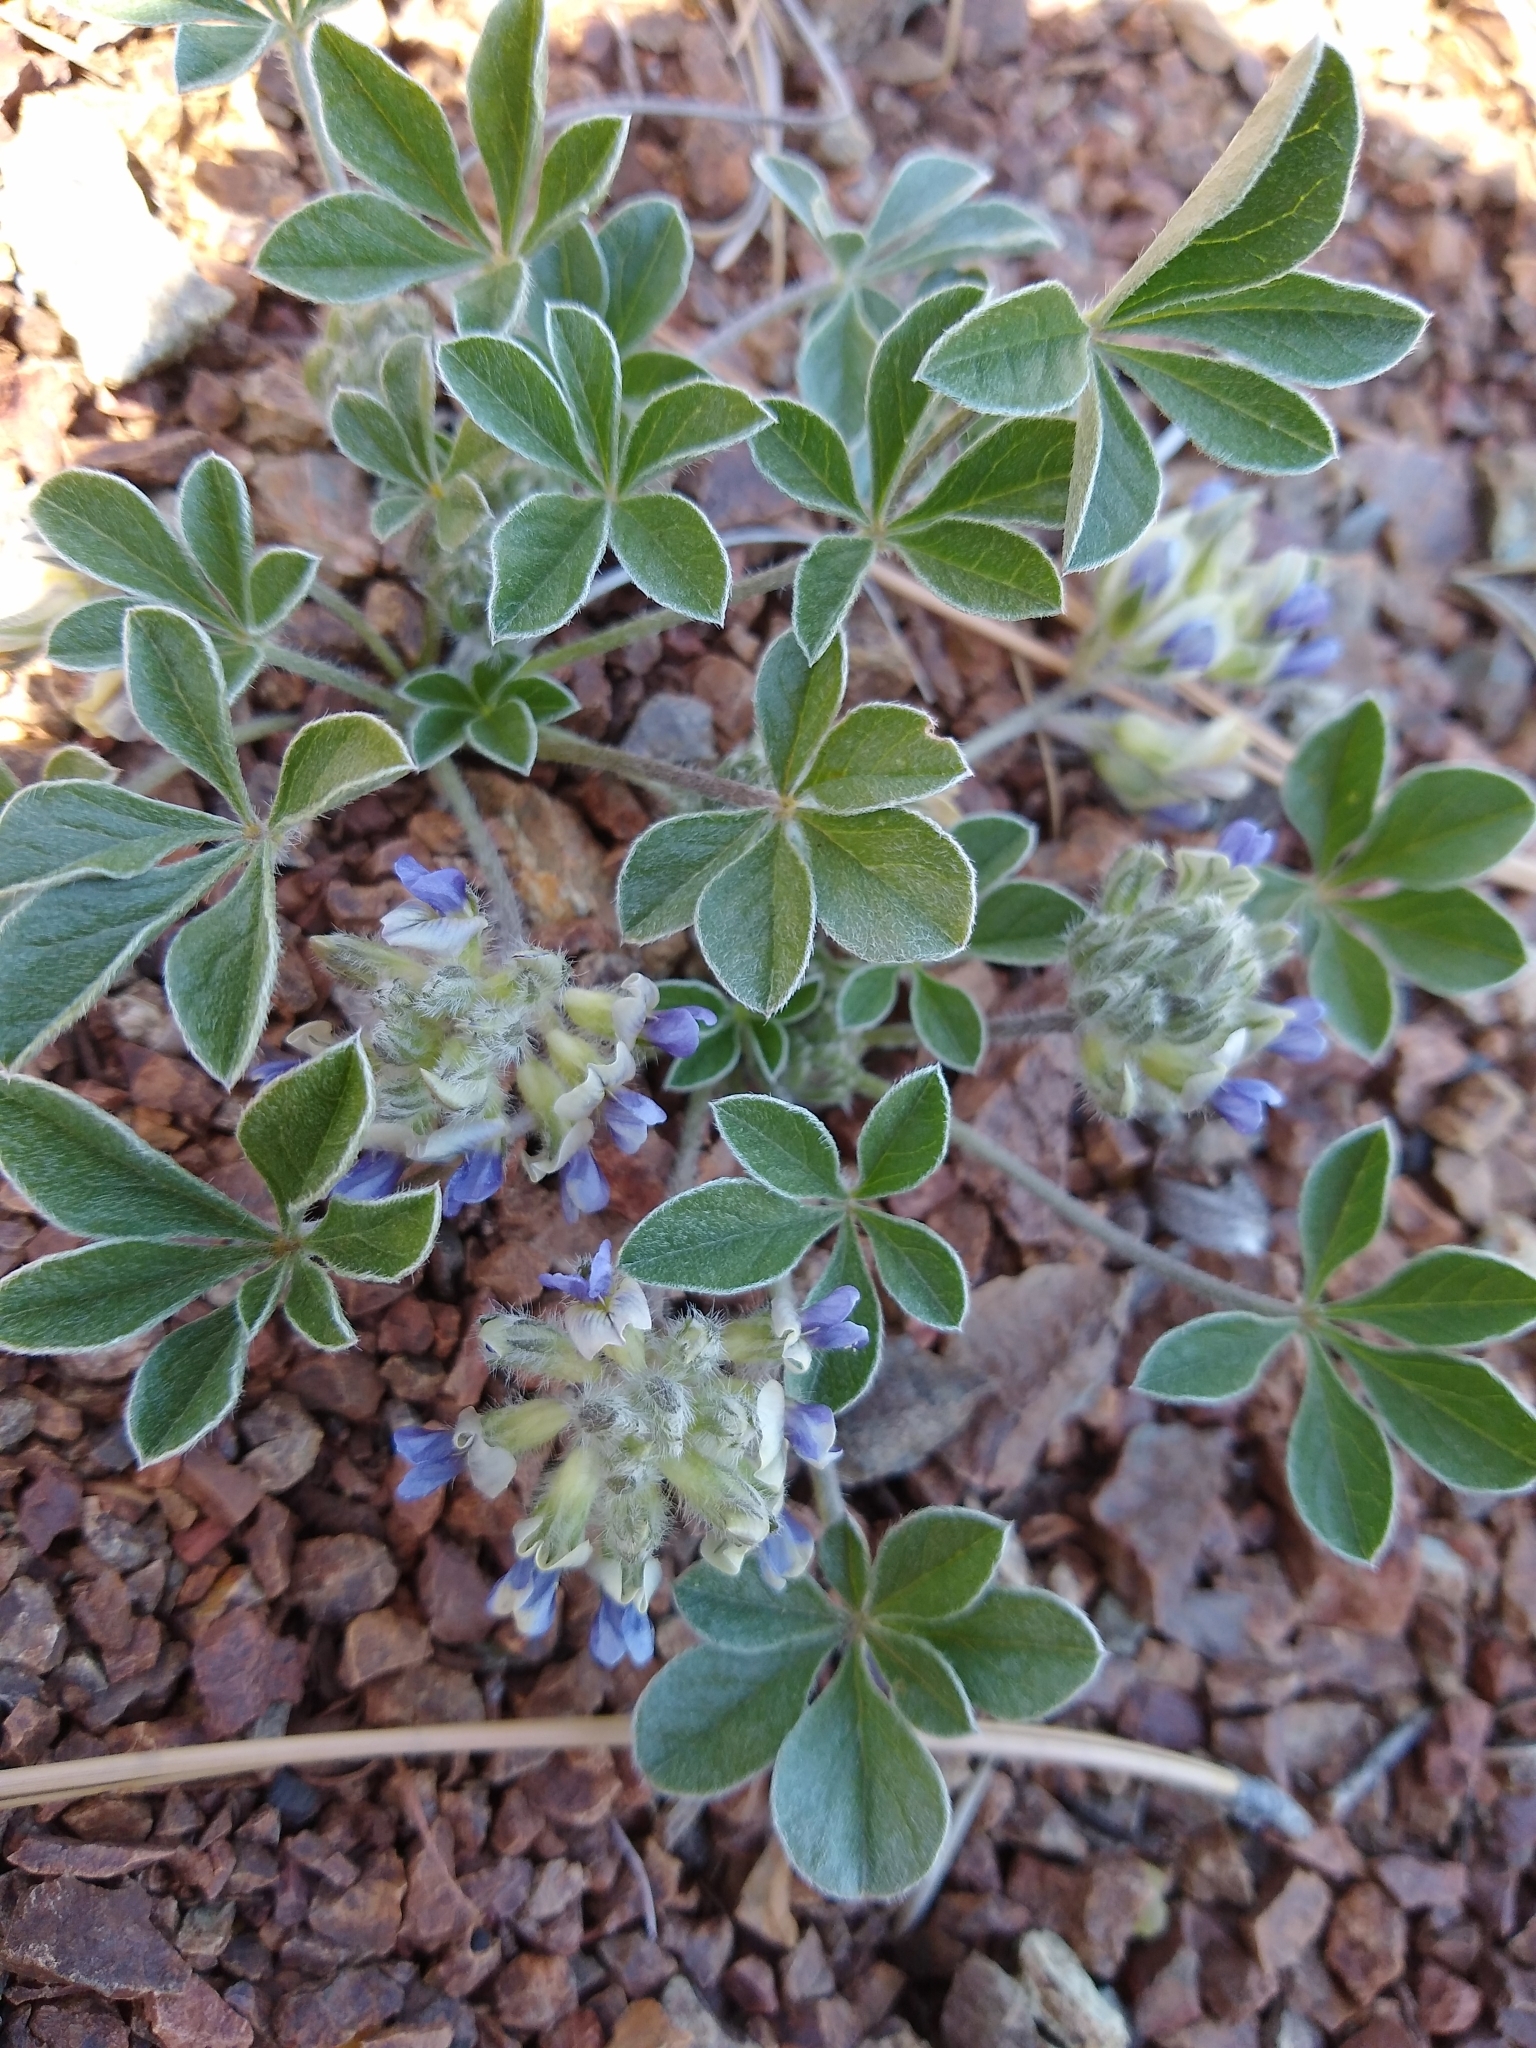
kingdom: Plantae
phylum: Tracheophyta
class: Magnoliopsida
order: Fabales
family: Fabaceae
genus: Pediomelum
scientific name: Pediomelum californicum
